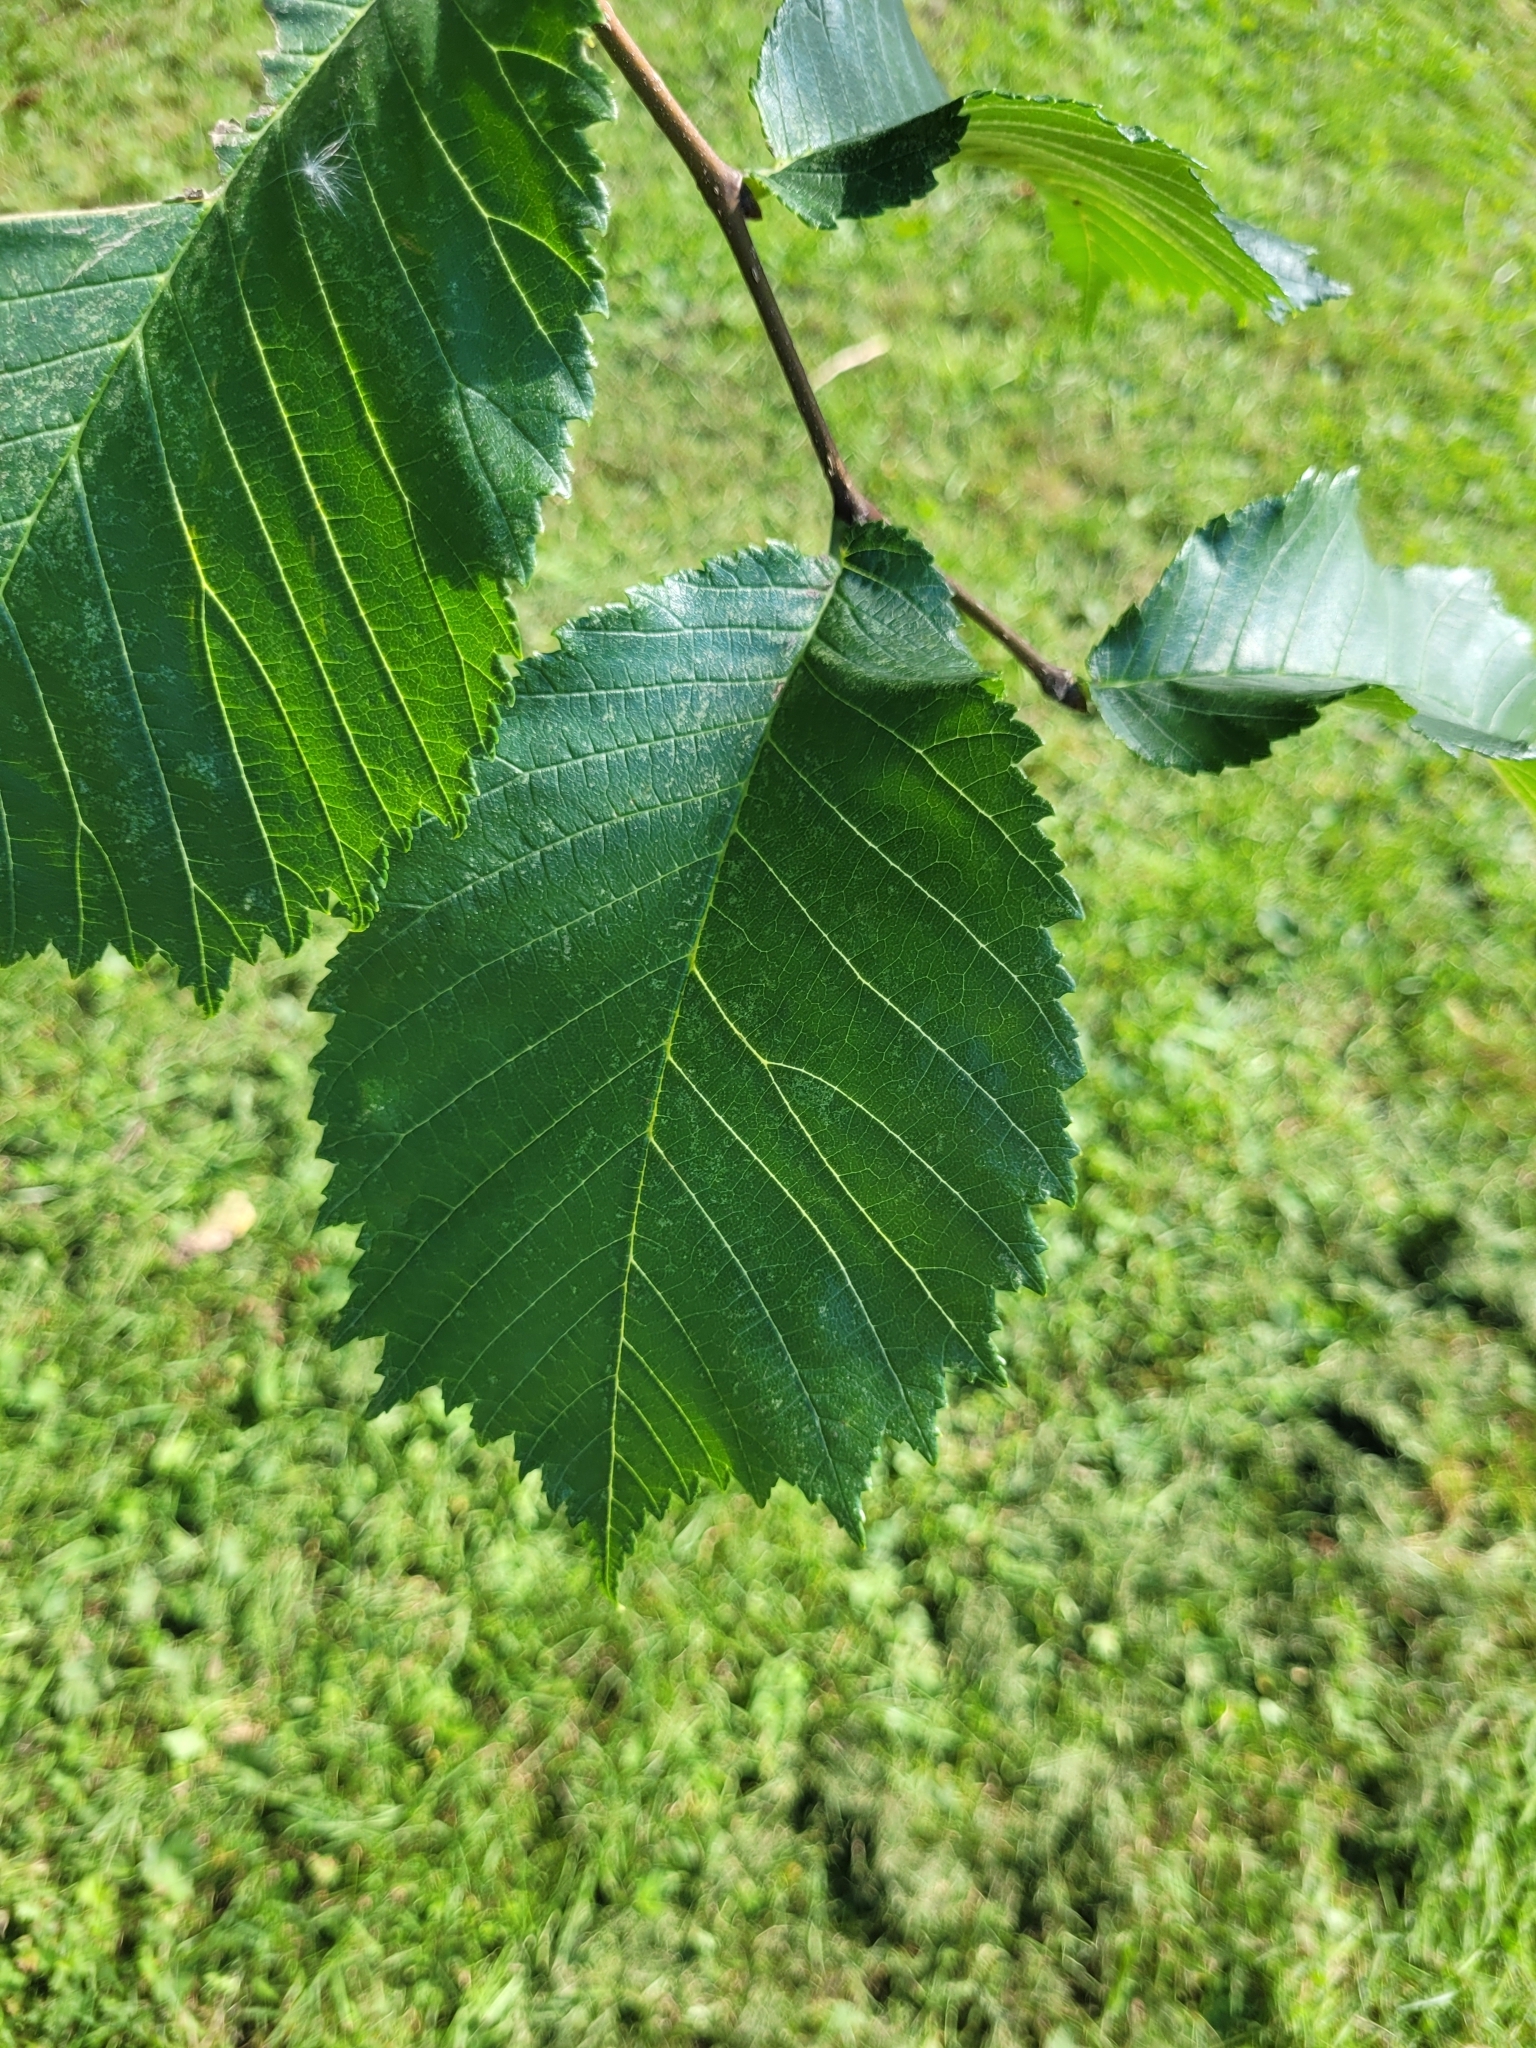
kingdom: Plantae
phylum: Tracheophyta
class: Magnoliopsida
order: Rosales
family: Ulmaceae
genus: Ulmus
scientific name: Ulmus glabra
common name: Wych elm
